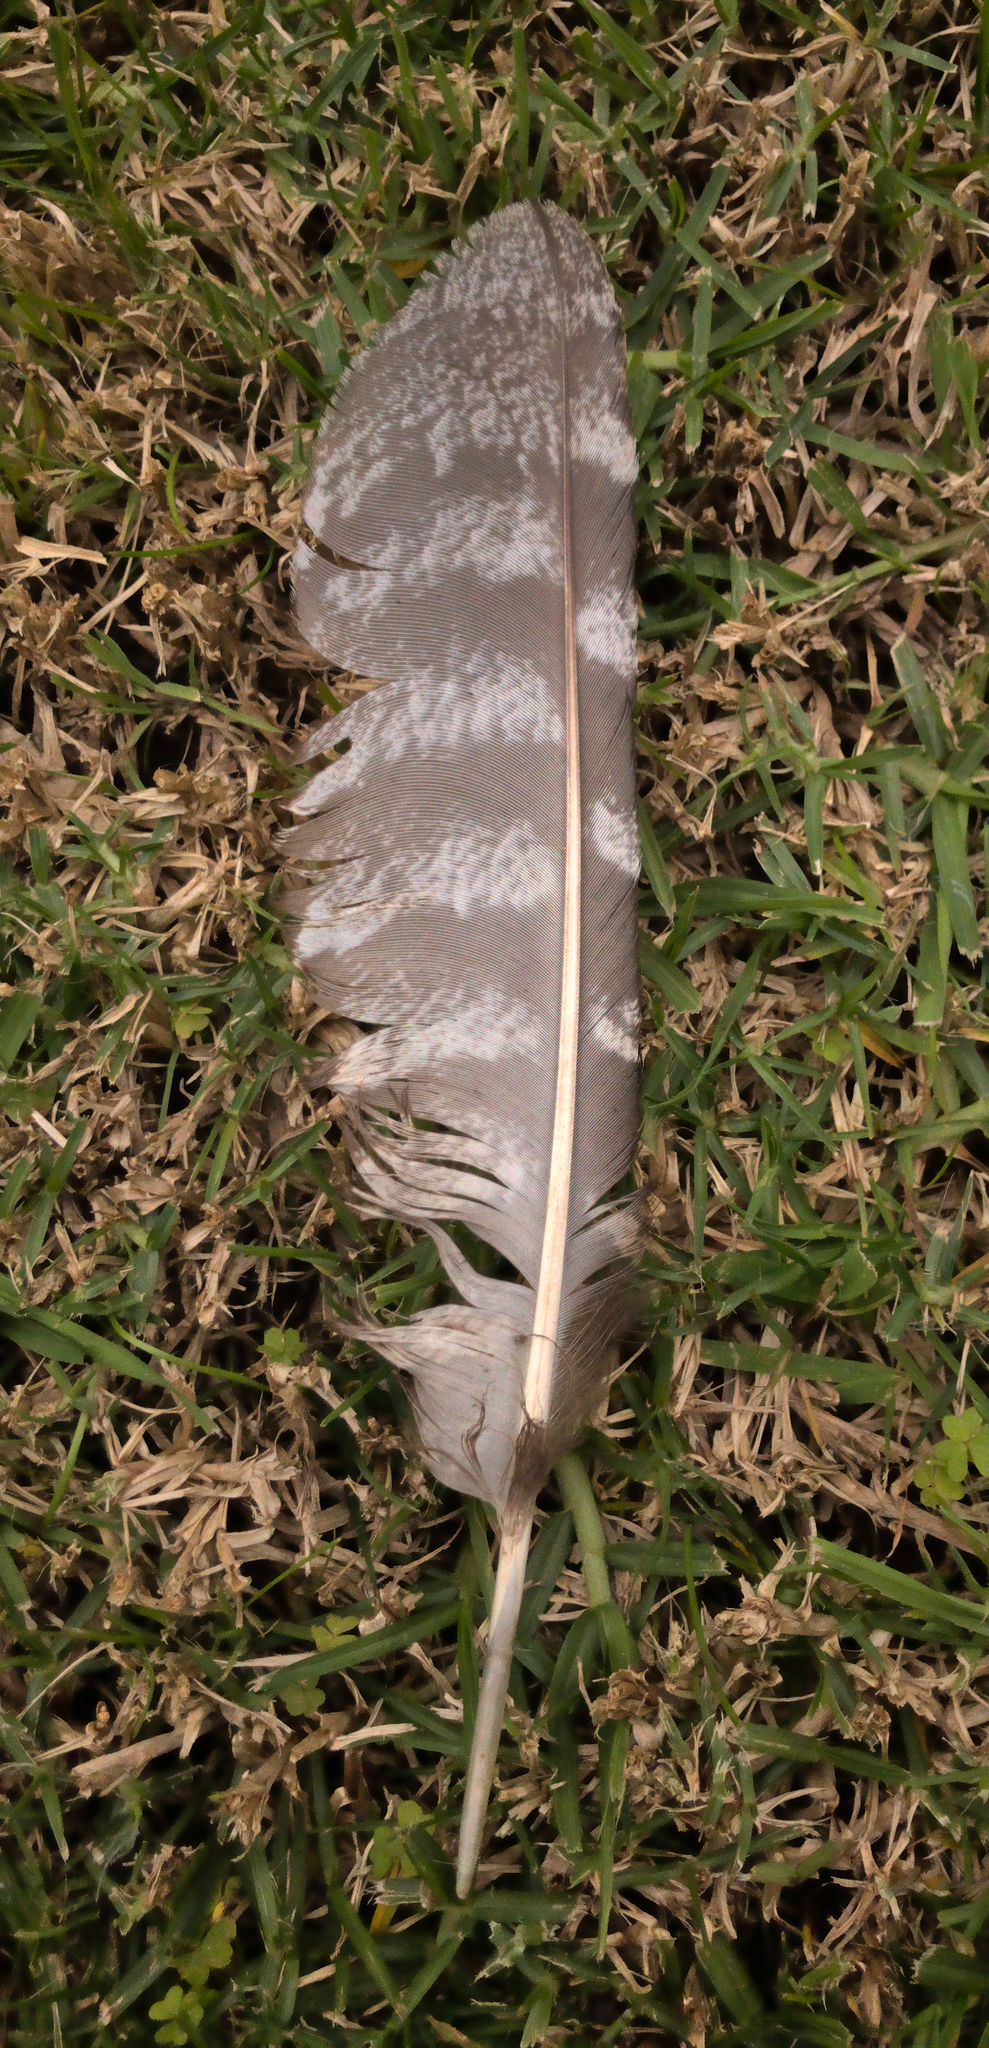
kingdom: Animalia
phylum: Chordata
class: Aves
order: Caprimulgiformes
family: Podargidae
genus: Podargus
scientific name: Podargus strigoides
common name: Tawny frogmouth
